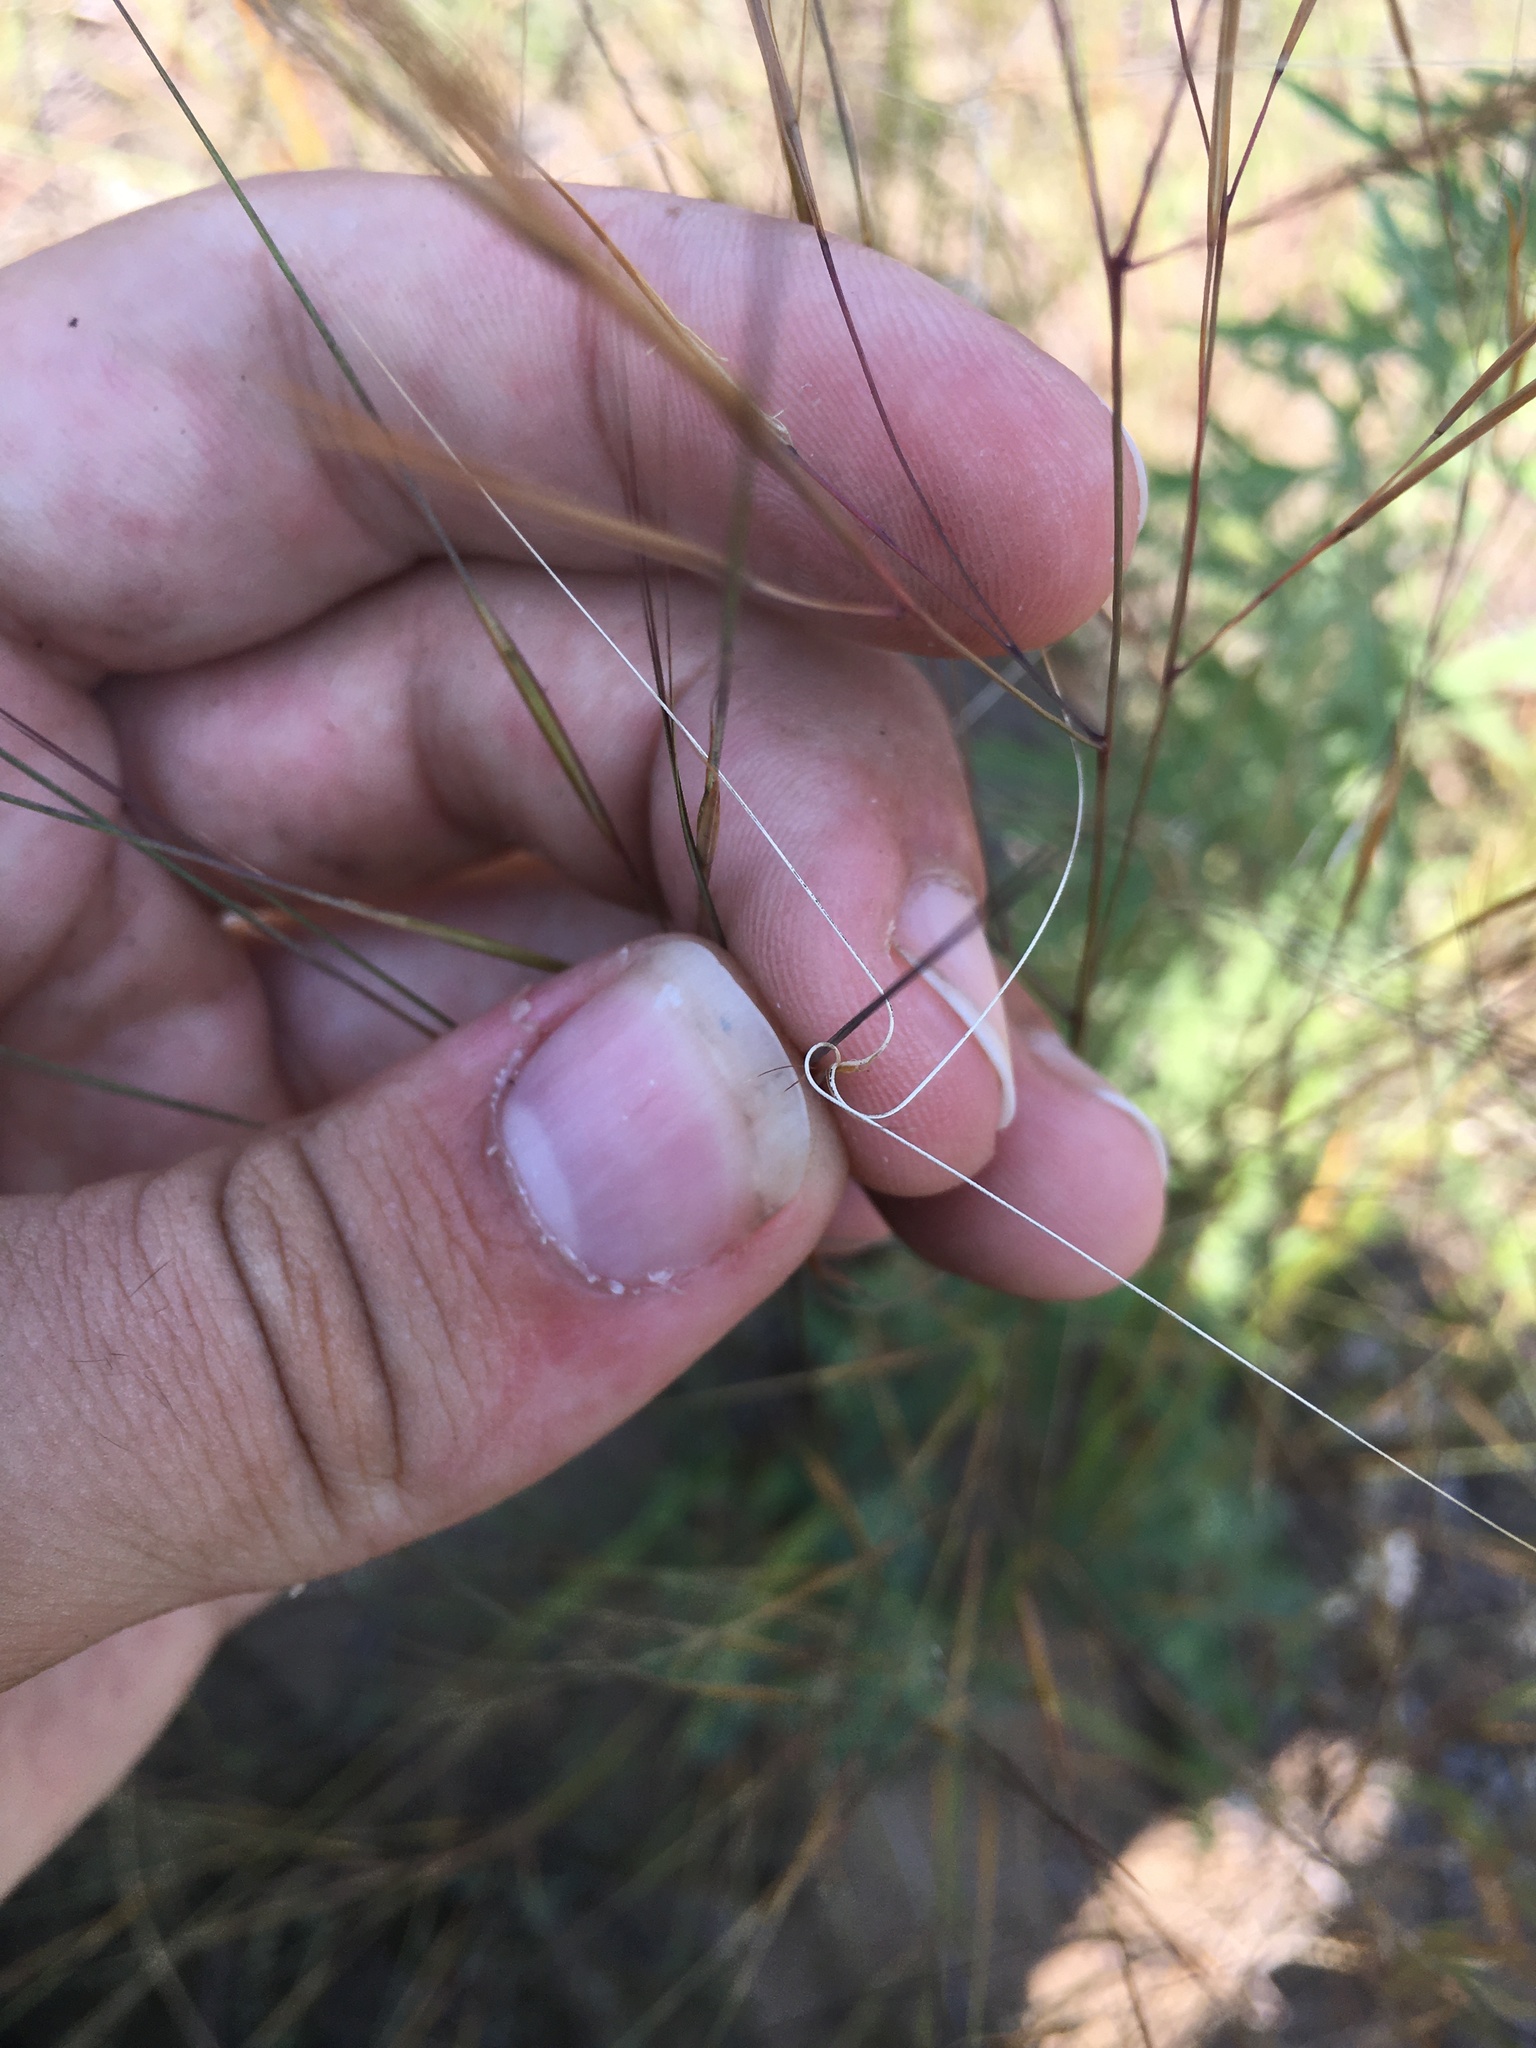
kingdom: Plantae
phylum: Tracheophyta
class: Liliopsida
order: Poales
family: Poaceae
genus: Aristida
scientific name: Aristida tuberculosa
